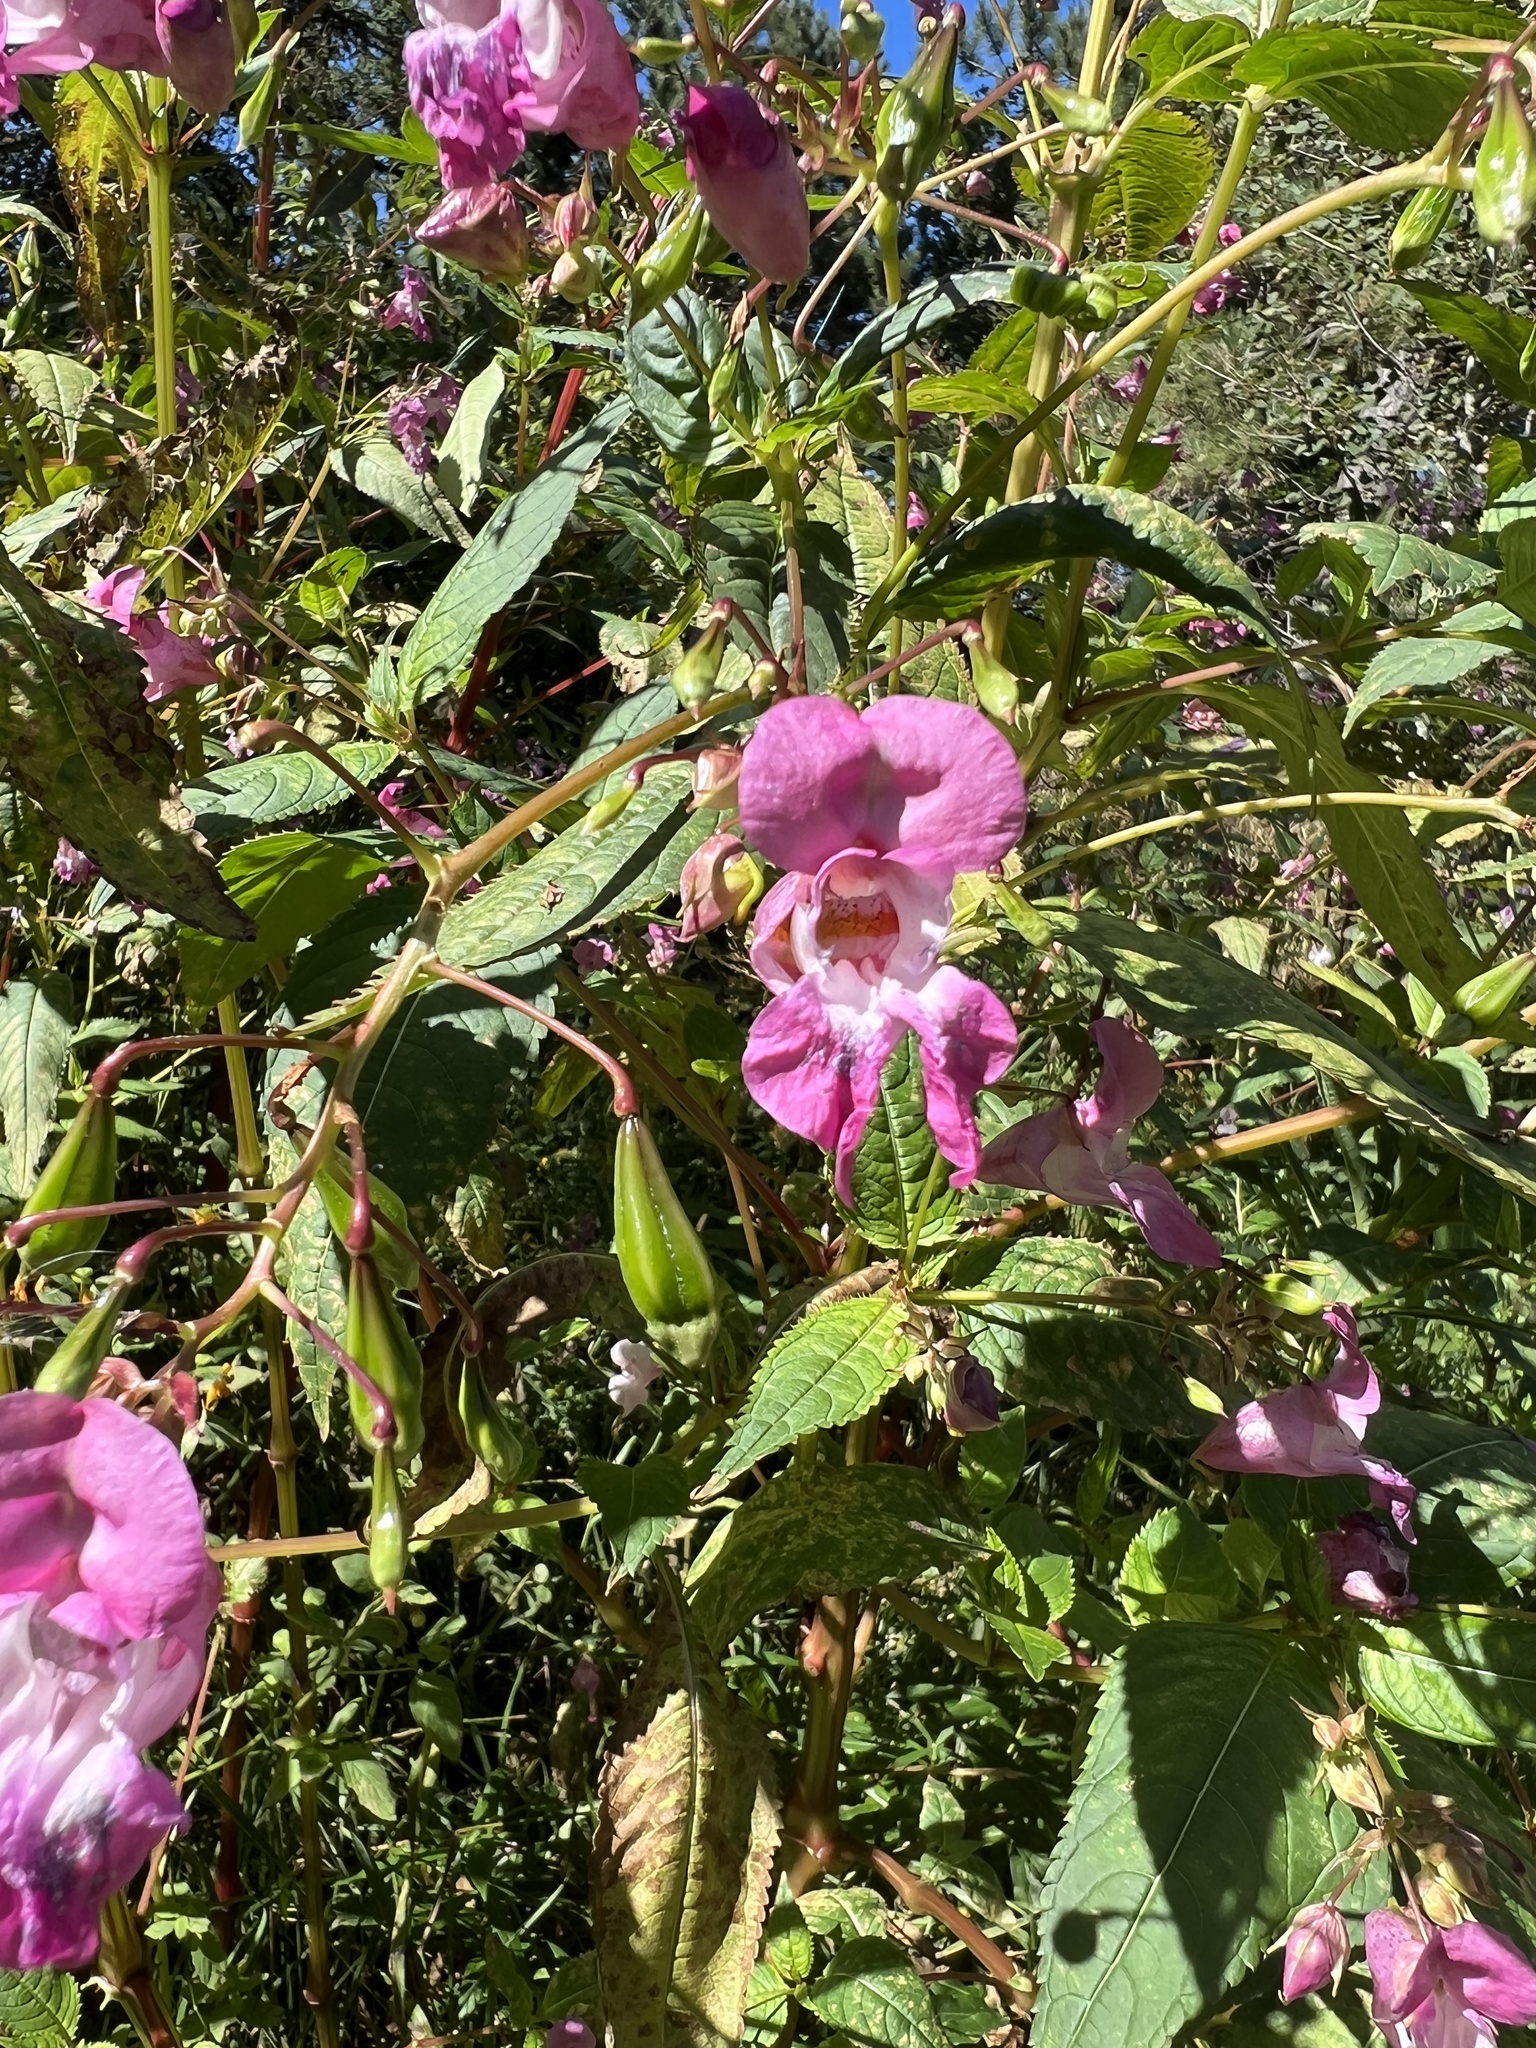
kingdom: Plantae
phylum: Tracheophyta
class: Magnoliopsida
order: Ericales
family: Balsaminaceae
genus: Impatiens
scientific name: Impatiens glandulifera
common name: Himalayan balsam
